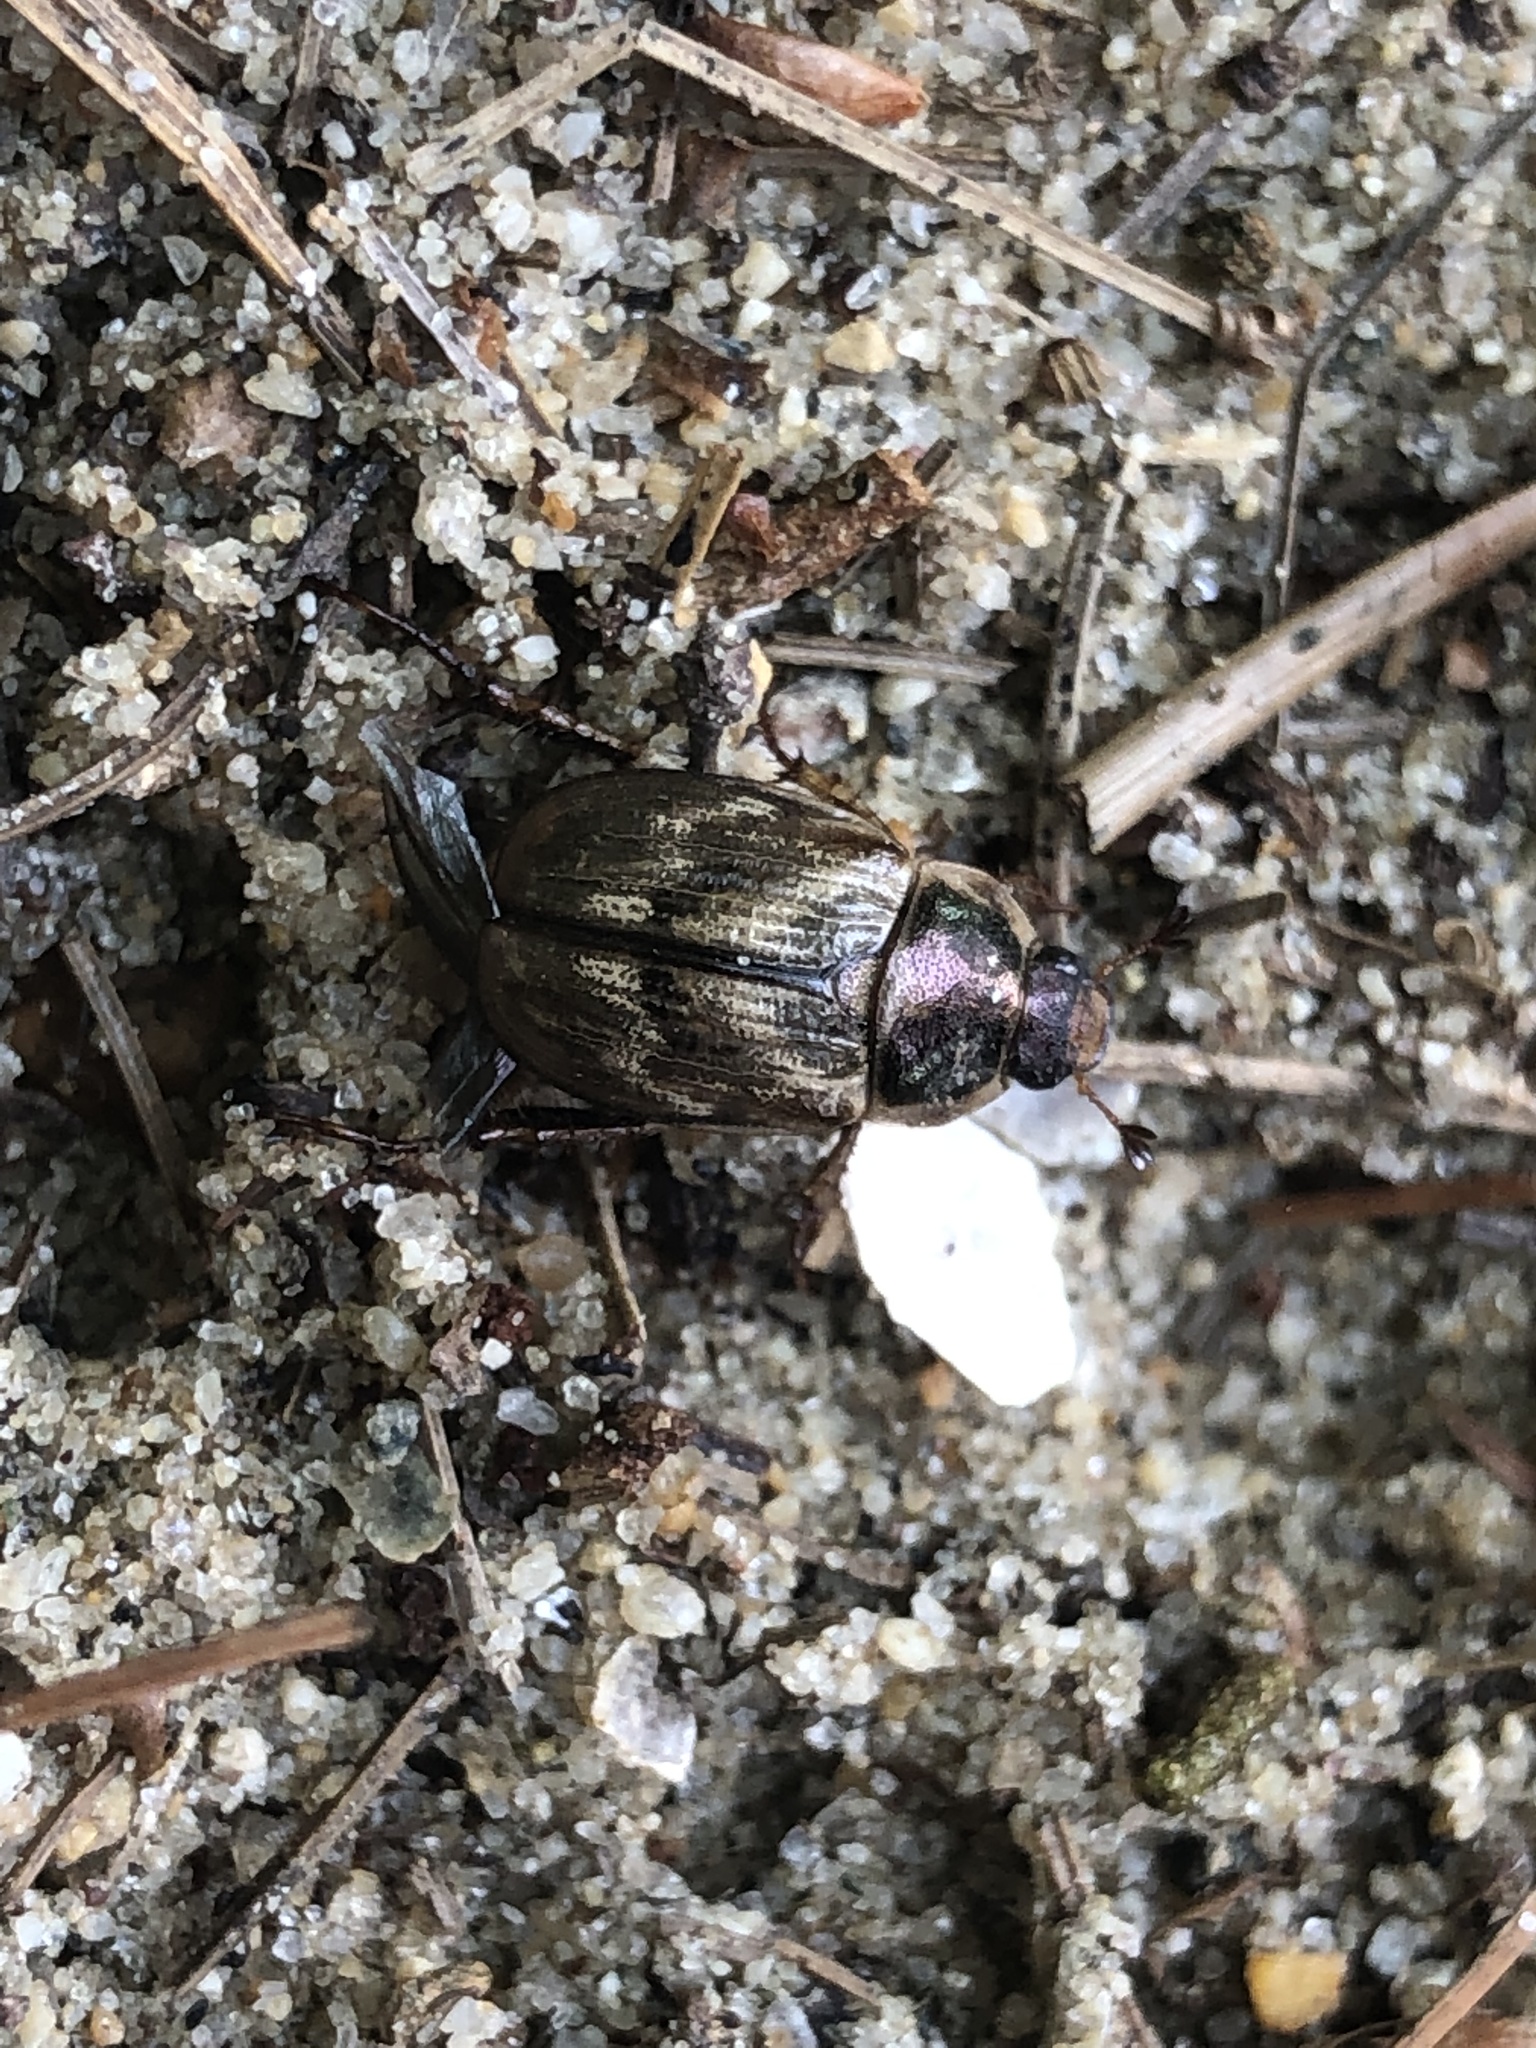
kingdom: Animalia
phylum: Arthropoda
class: Insecta
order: Coleoptera
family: Scarabaeidae
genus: Exomala
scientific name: Exomala orientalis
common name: Oriental beetle
